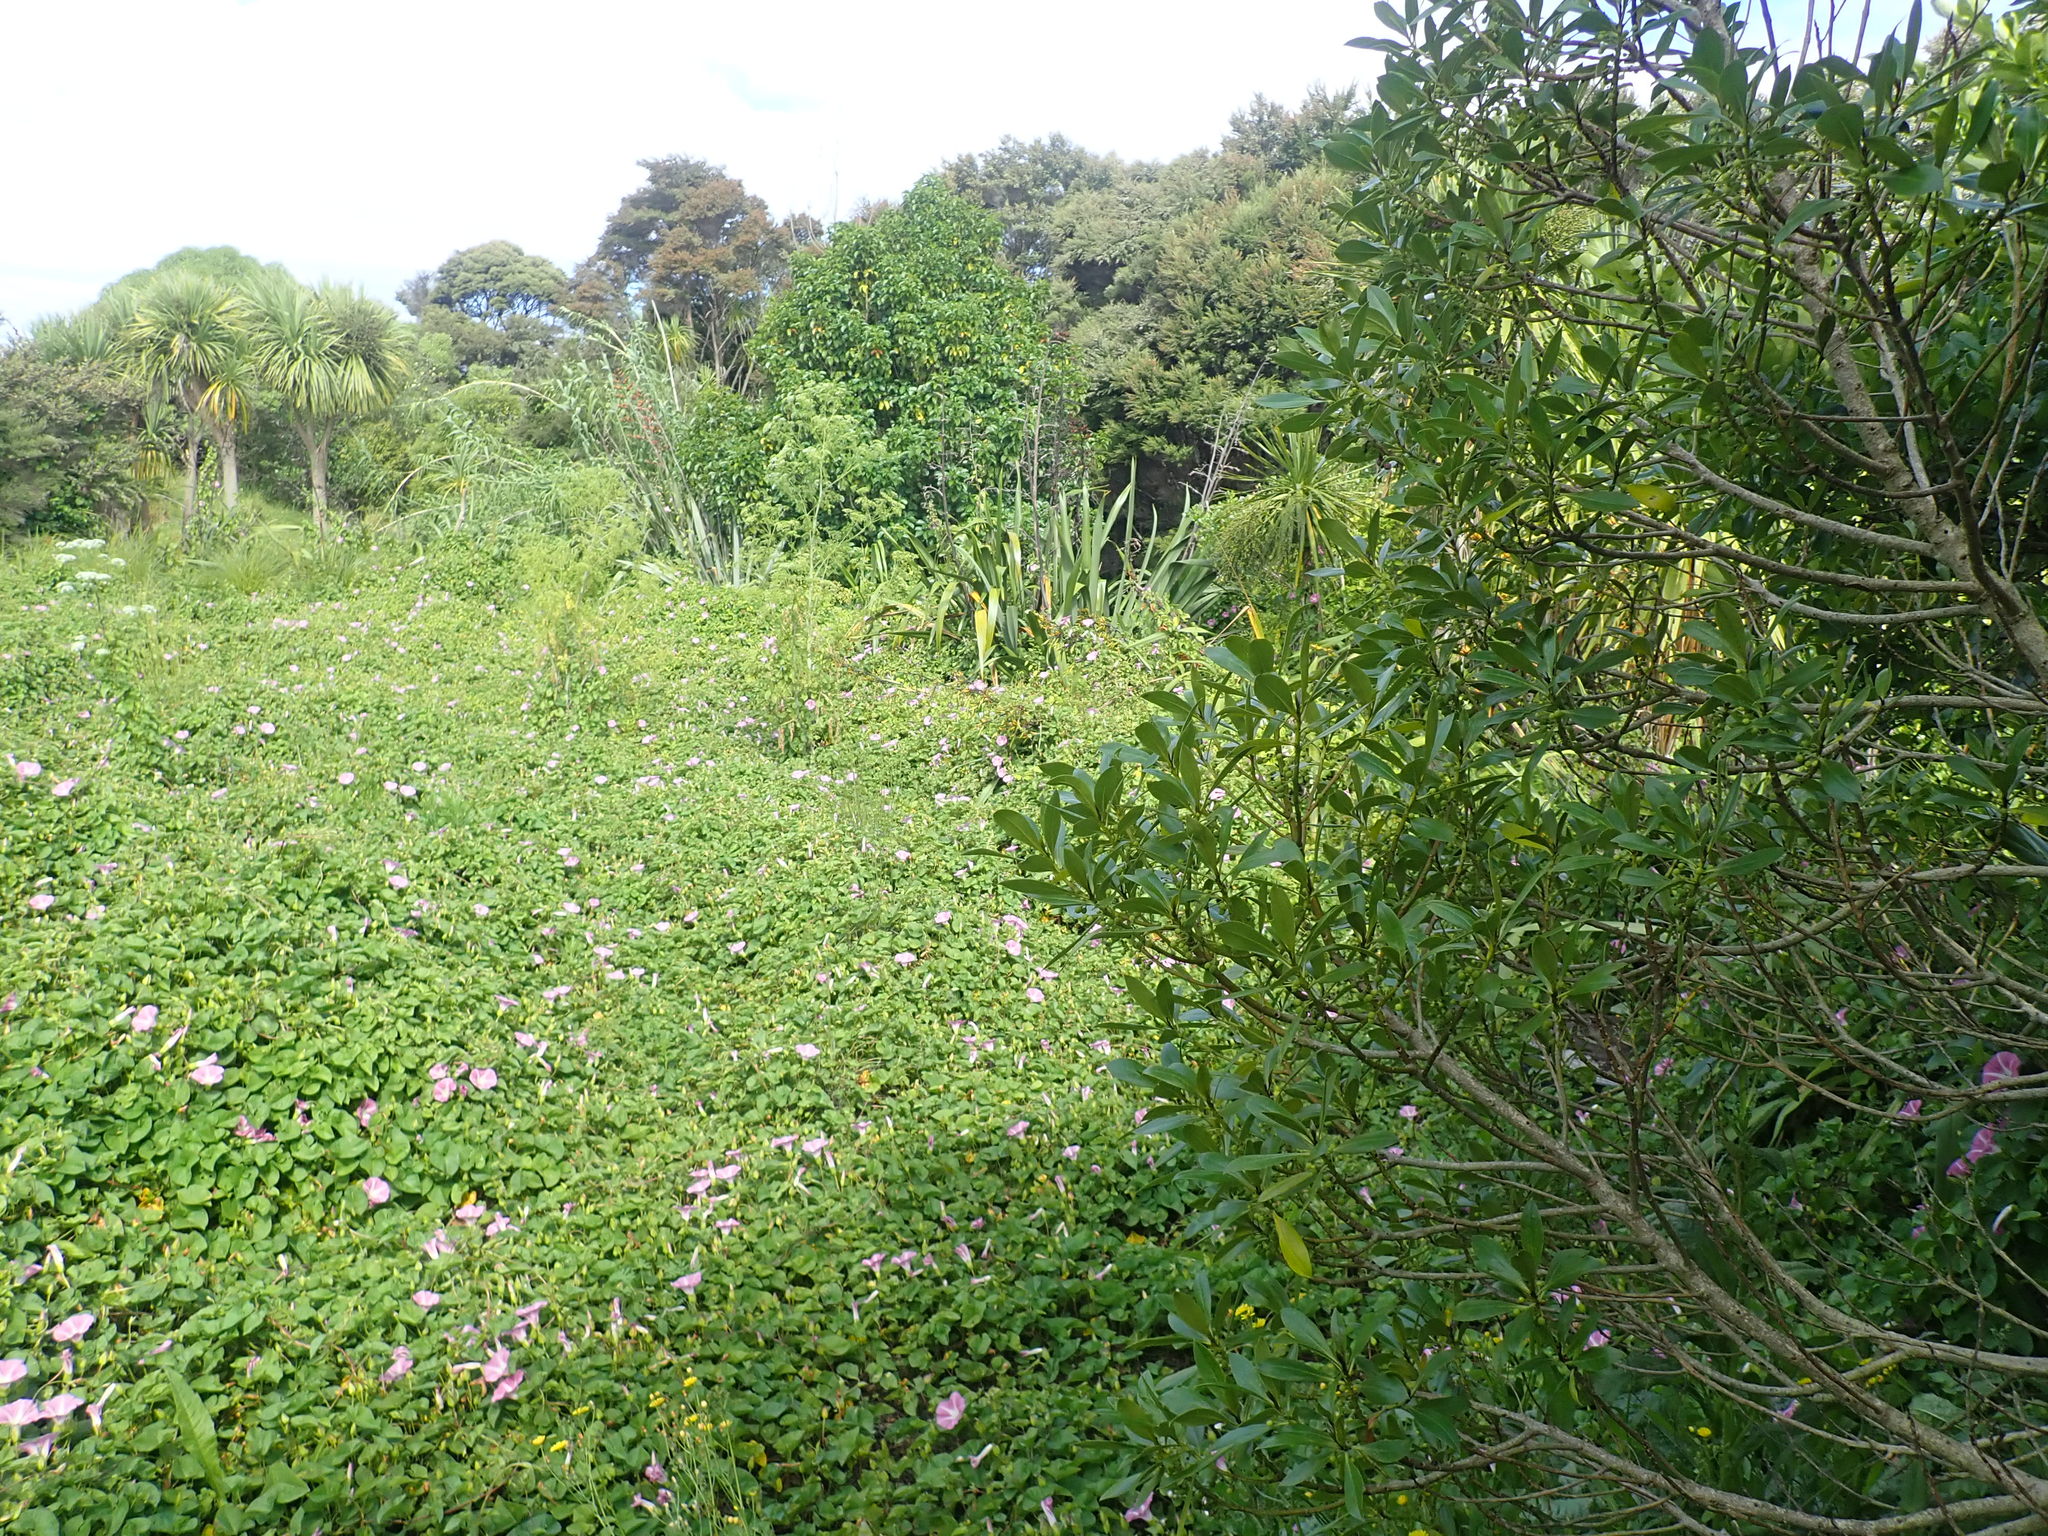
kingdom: Plantae
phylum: Tracheophyta
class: Magnoliopsida
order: Solanales
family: Convolvulaceae
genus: Calystegia
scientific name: Calystegia sepium
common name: Hedge bindweed
